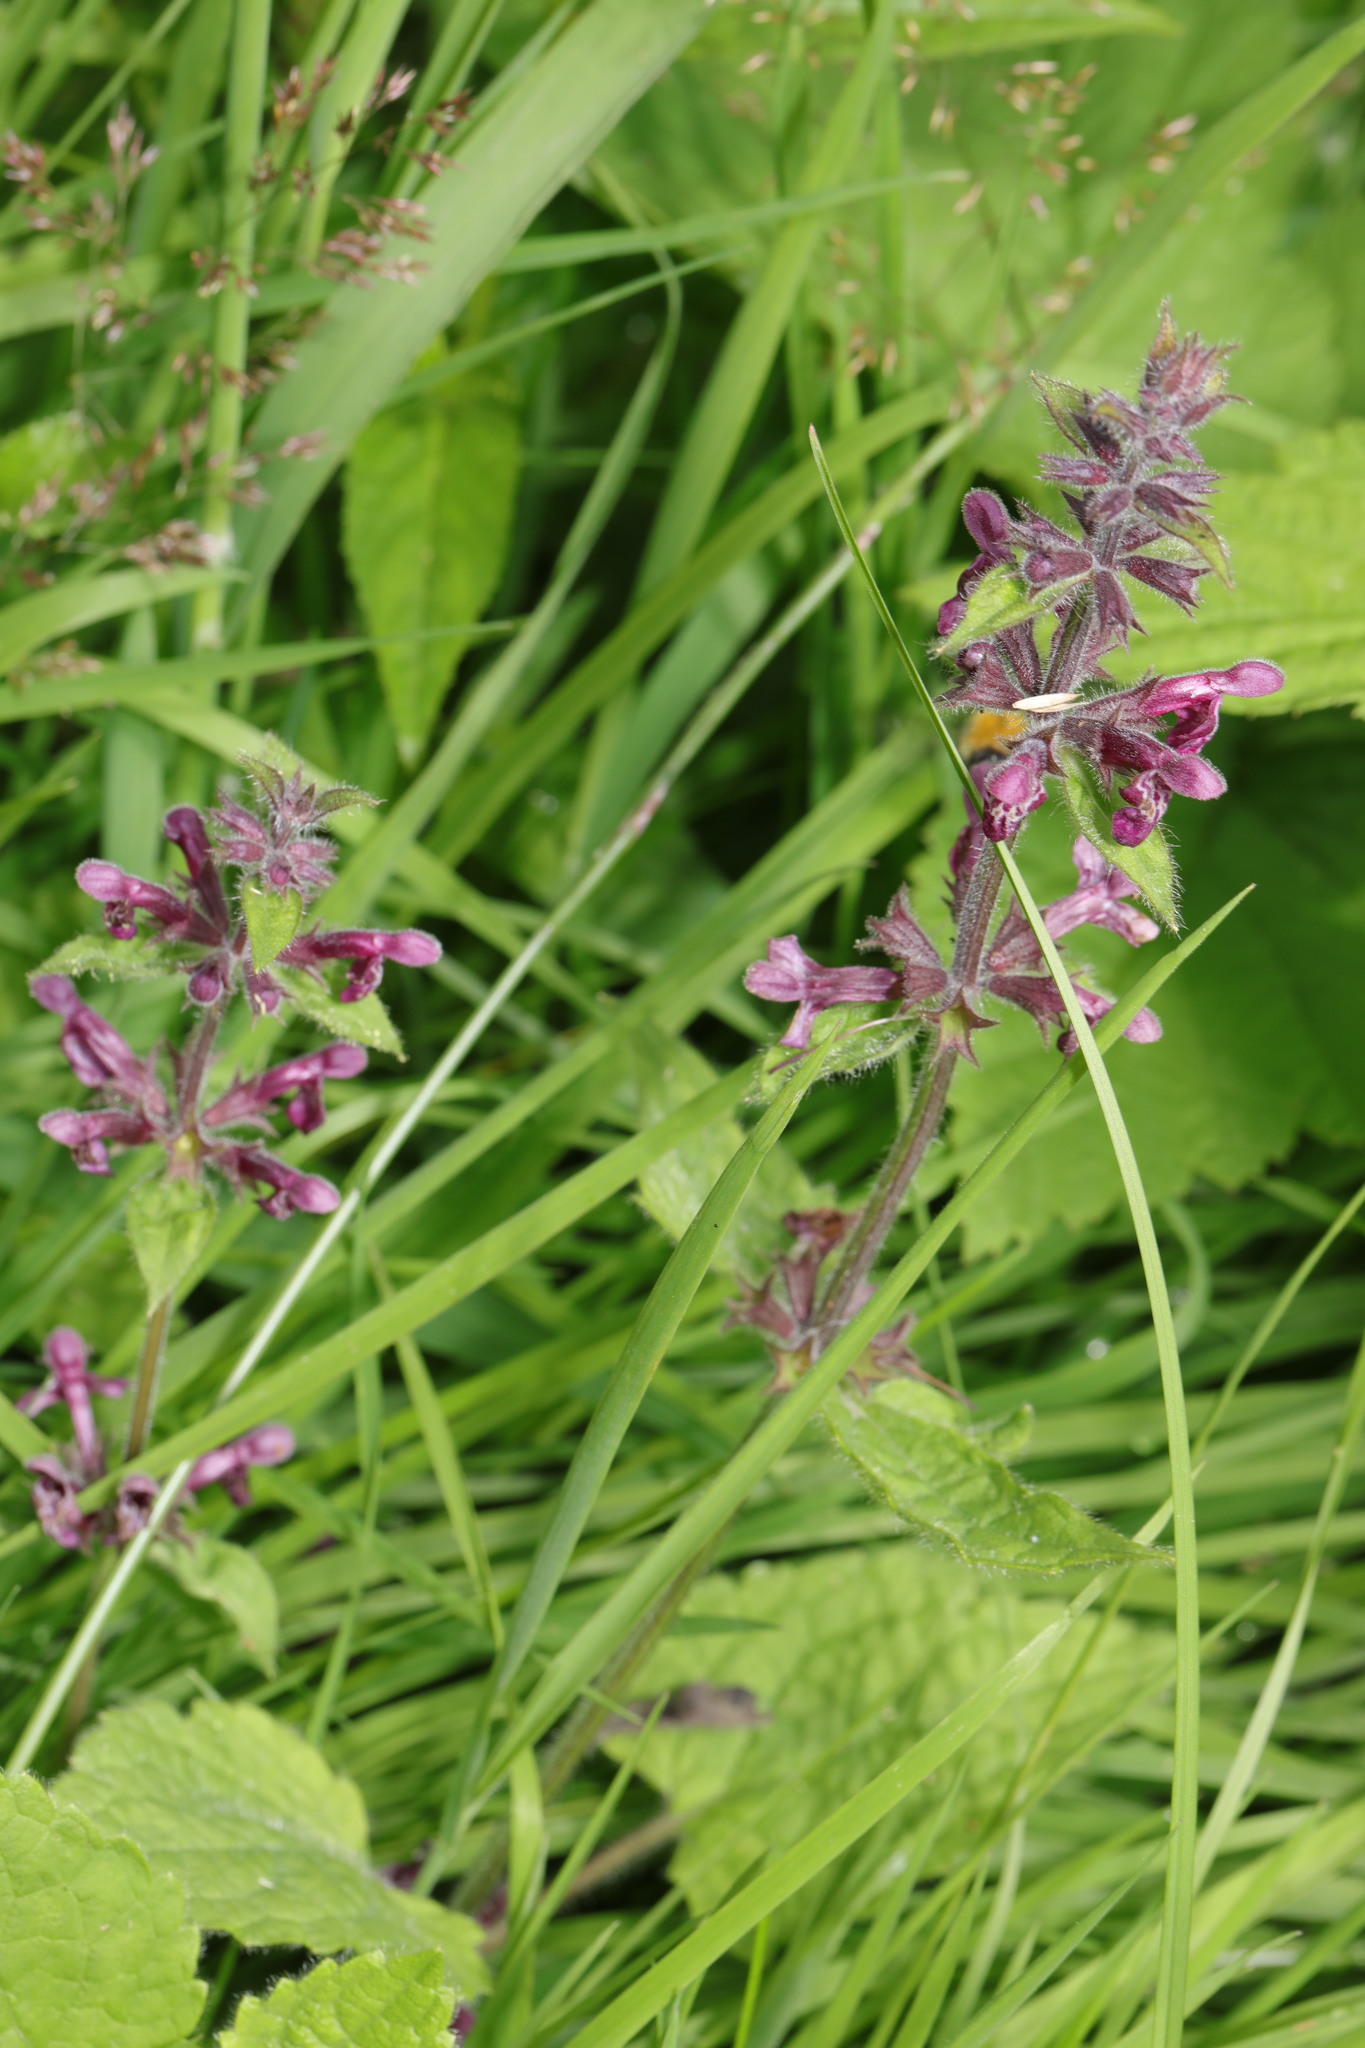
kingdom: Plantae
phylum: Tracheophyta
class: Magnoliopsida
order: Lamiales
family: Lamiaceae
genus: Stachys
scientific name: Stachys sylvatica
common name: Hedge woundwort
